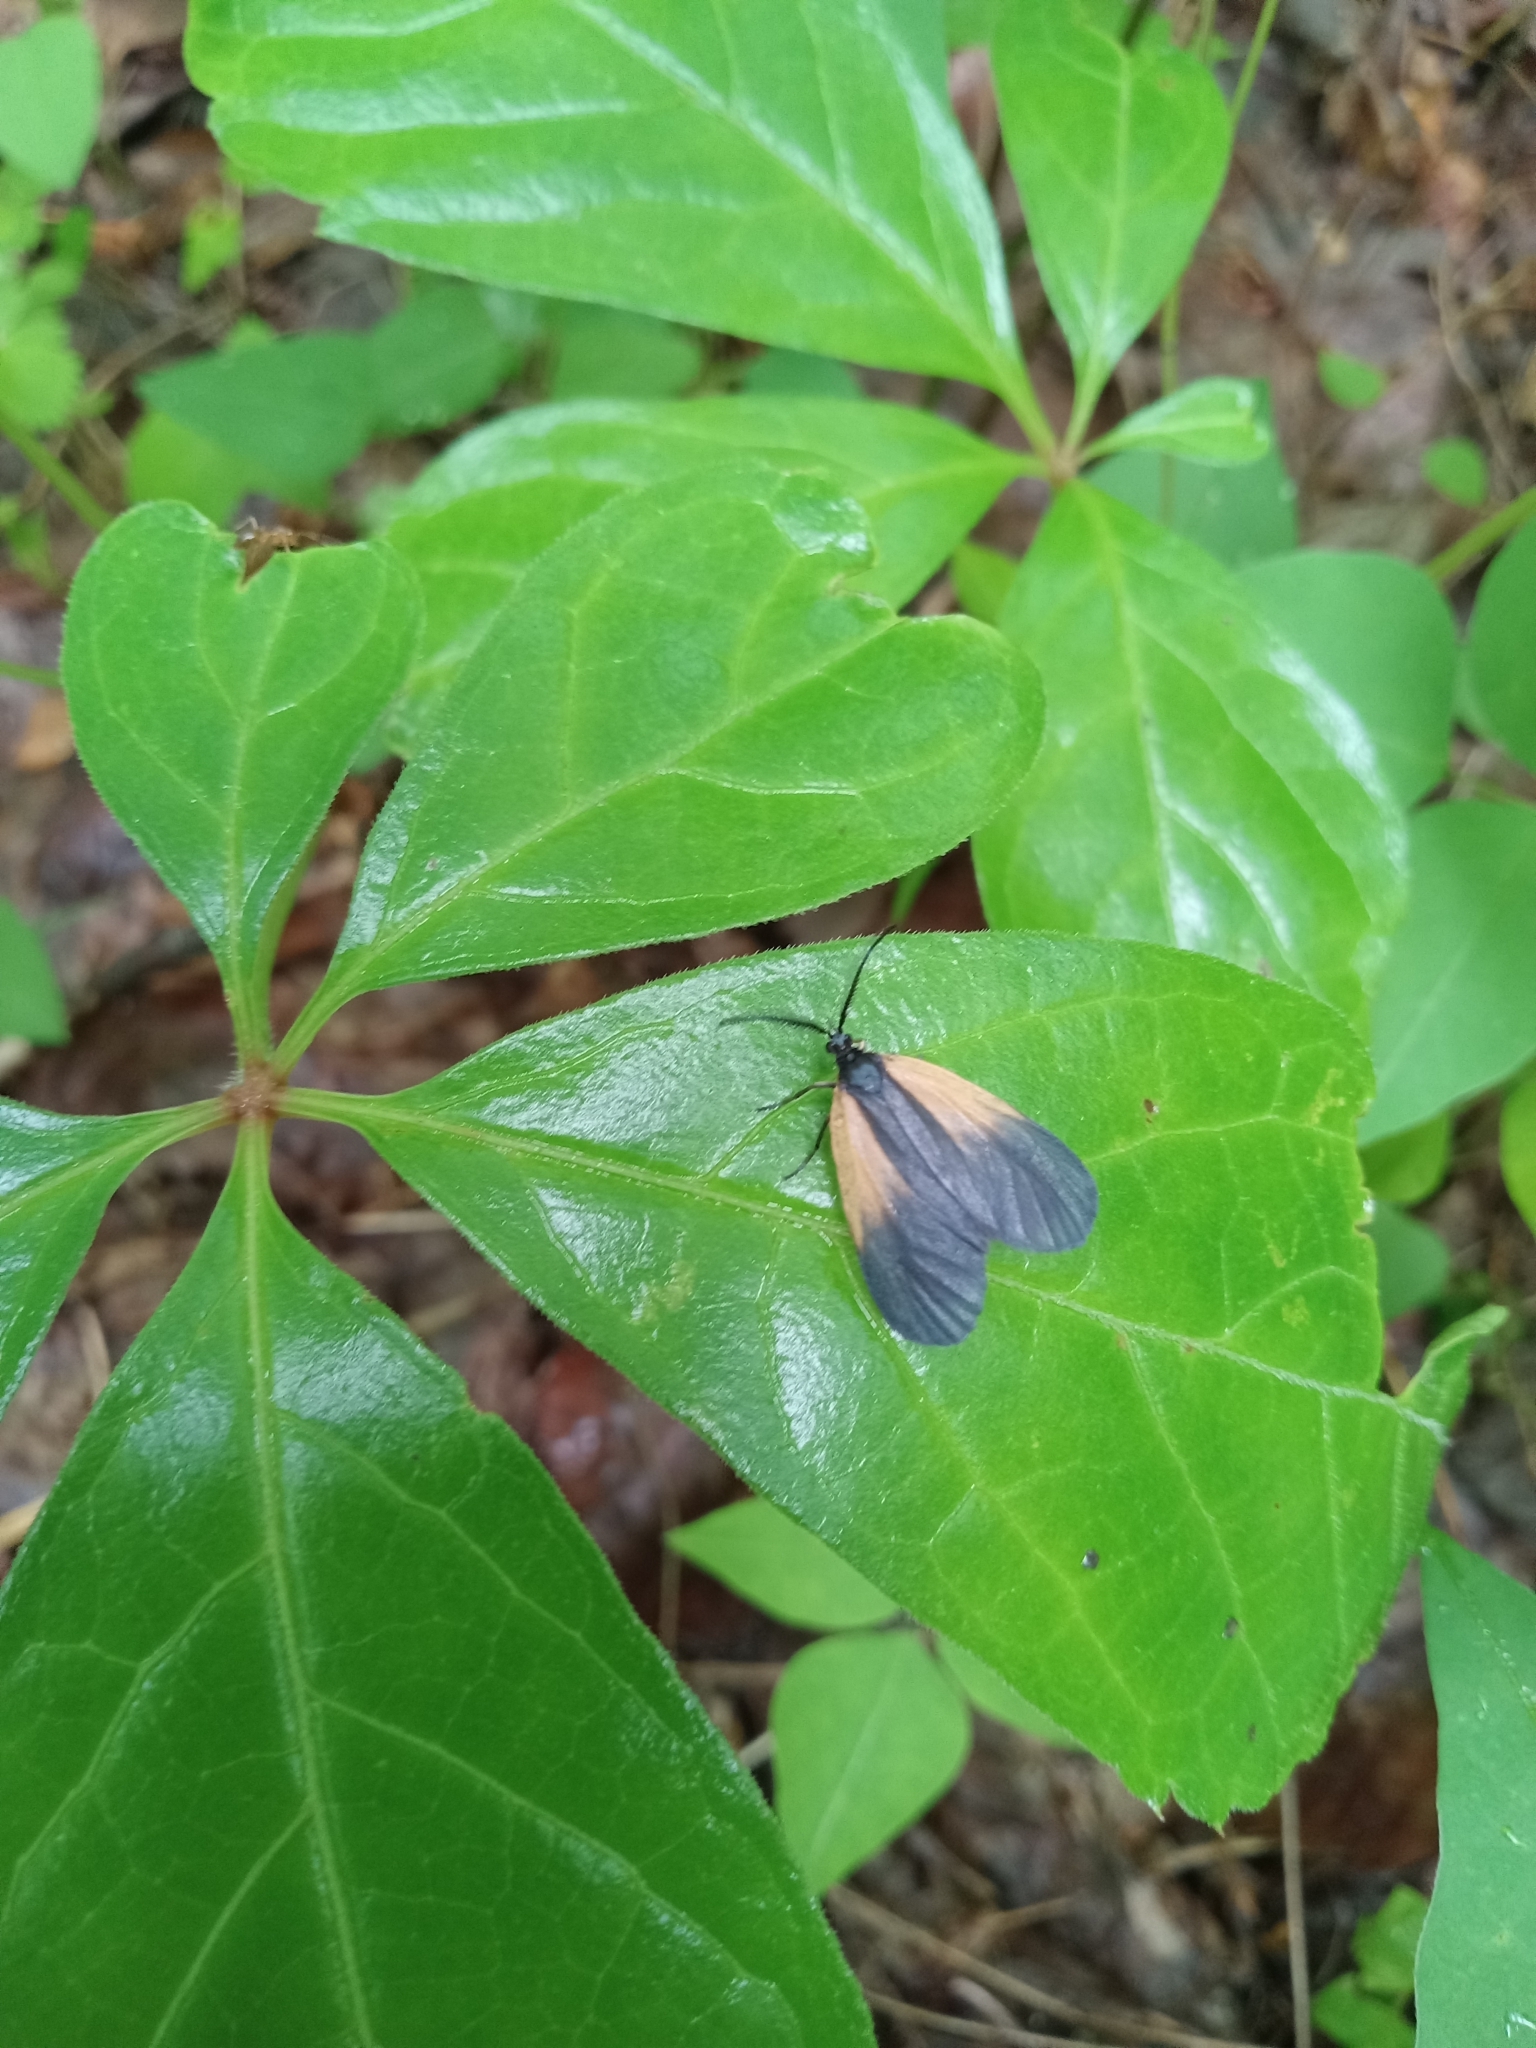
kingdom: Animalia
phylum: Arthropoda
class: Insecta
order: Lepidoptera
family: Zygaenidae
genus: Malthaca
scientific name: Malthaca dimidiata
